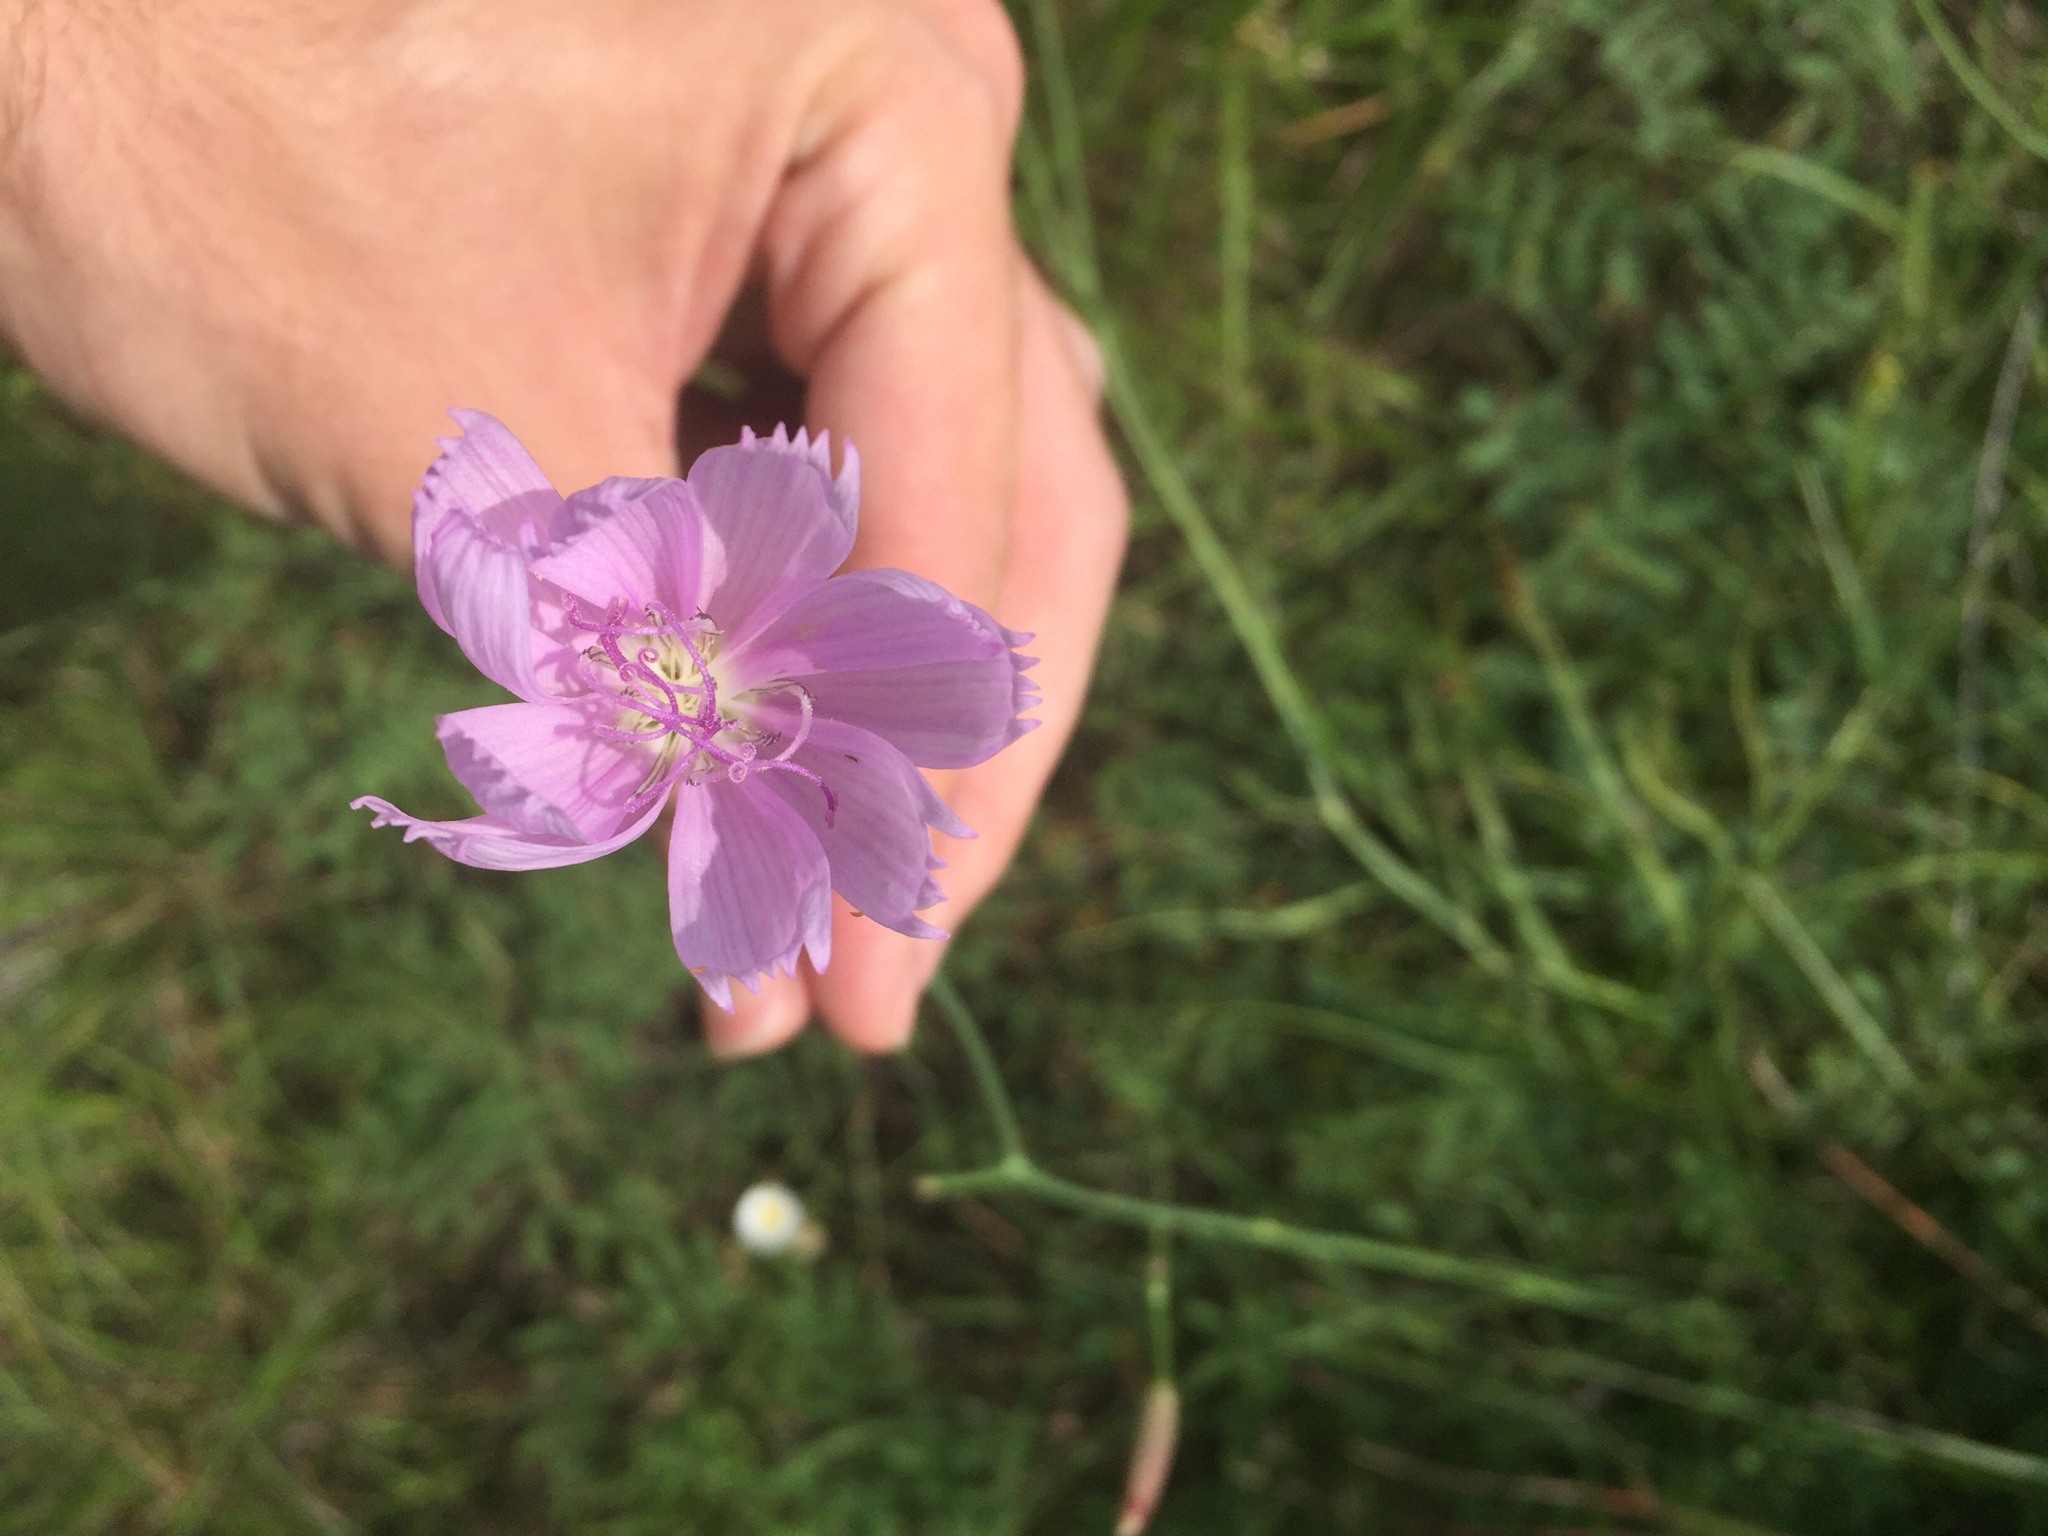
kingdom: Plantae
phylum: Tracheophyta
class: Magnoliopsida
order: Asterales
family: Asteraceae
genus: Lygodesmia
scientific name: Lygodesmia texana
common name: Texas skeleton-plant
